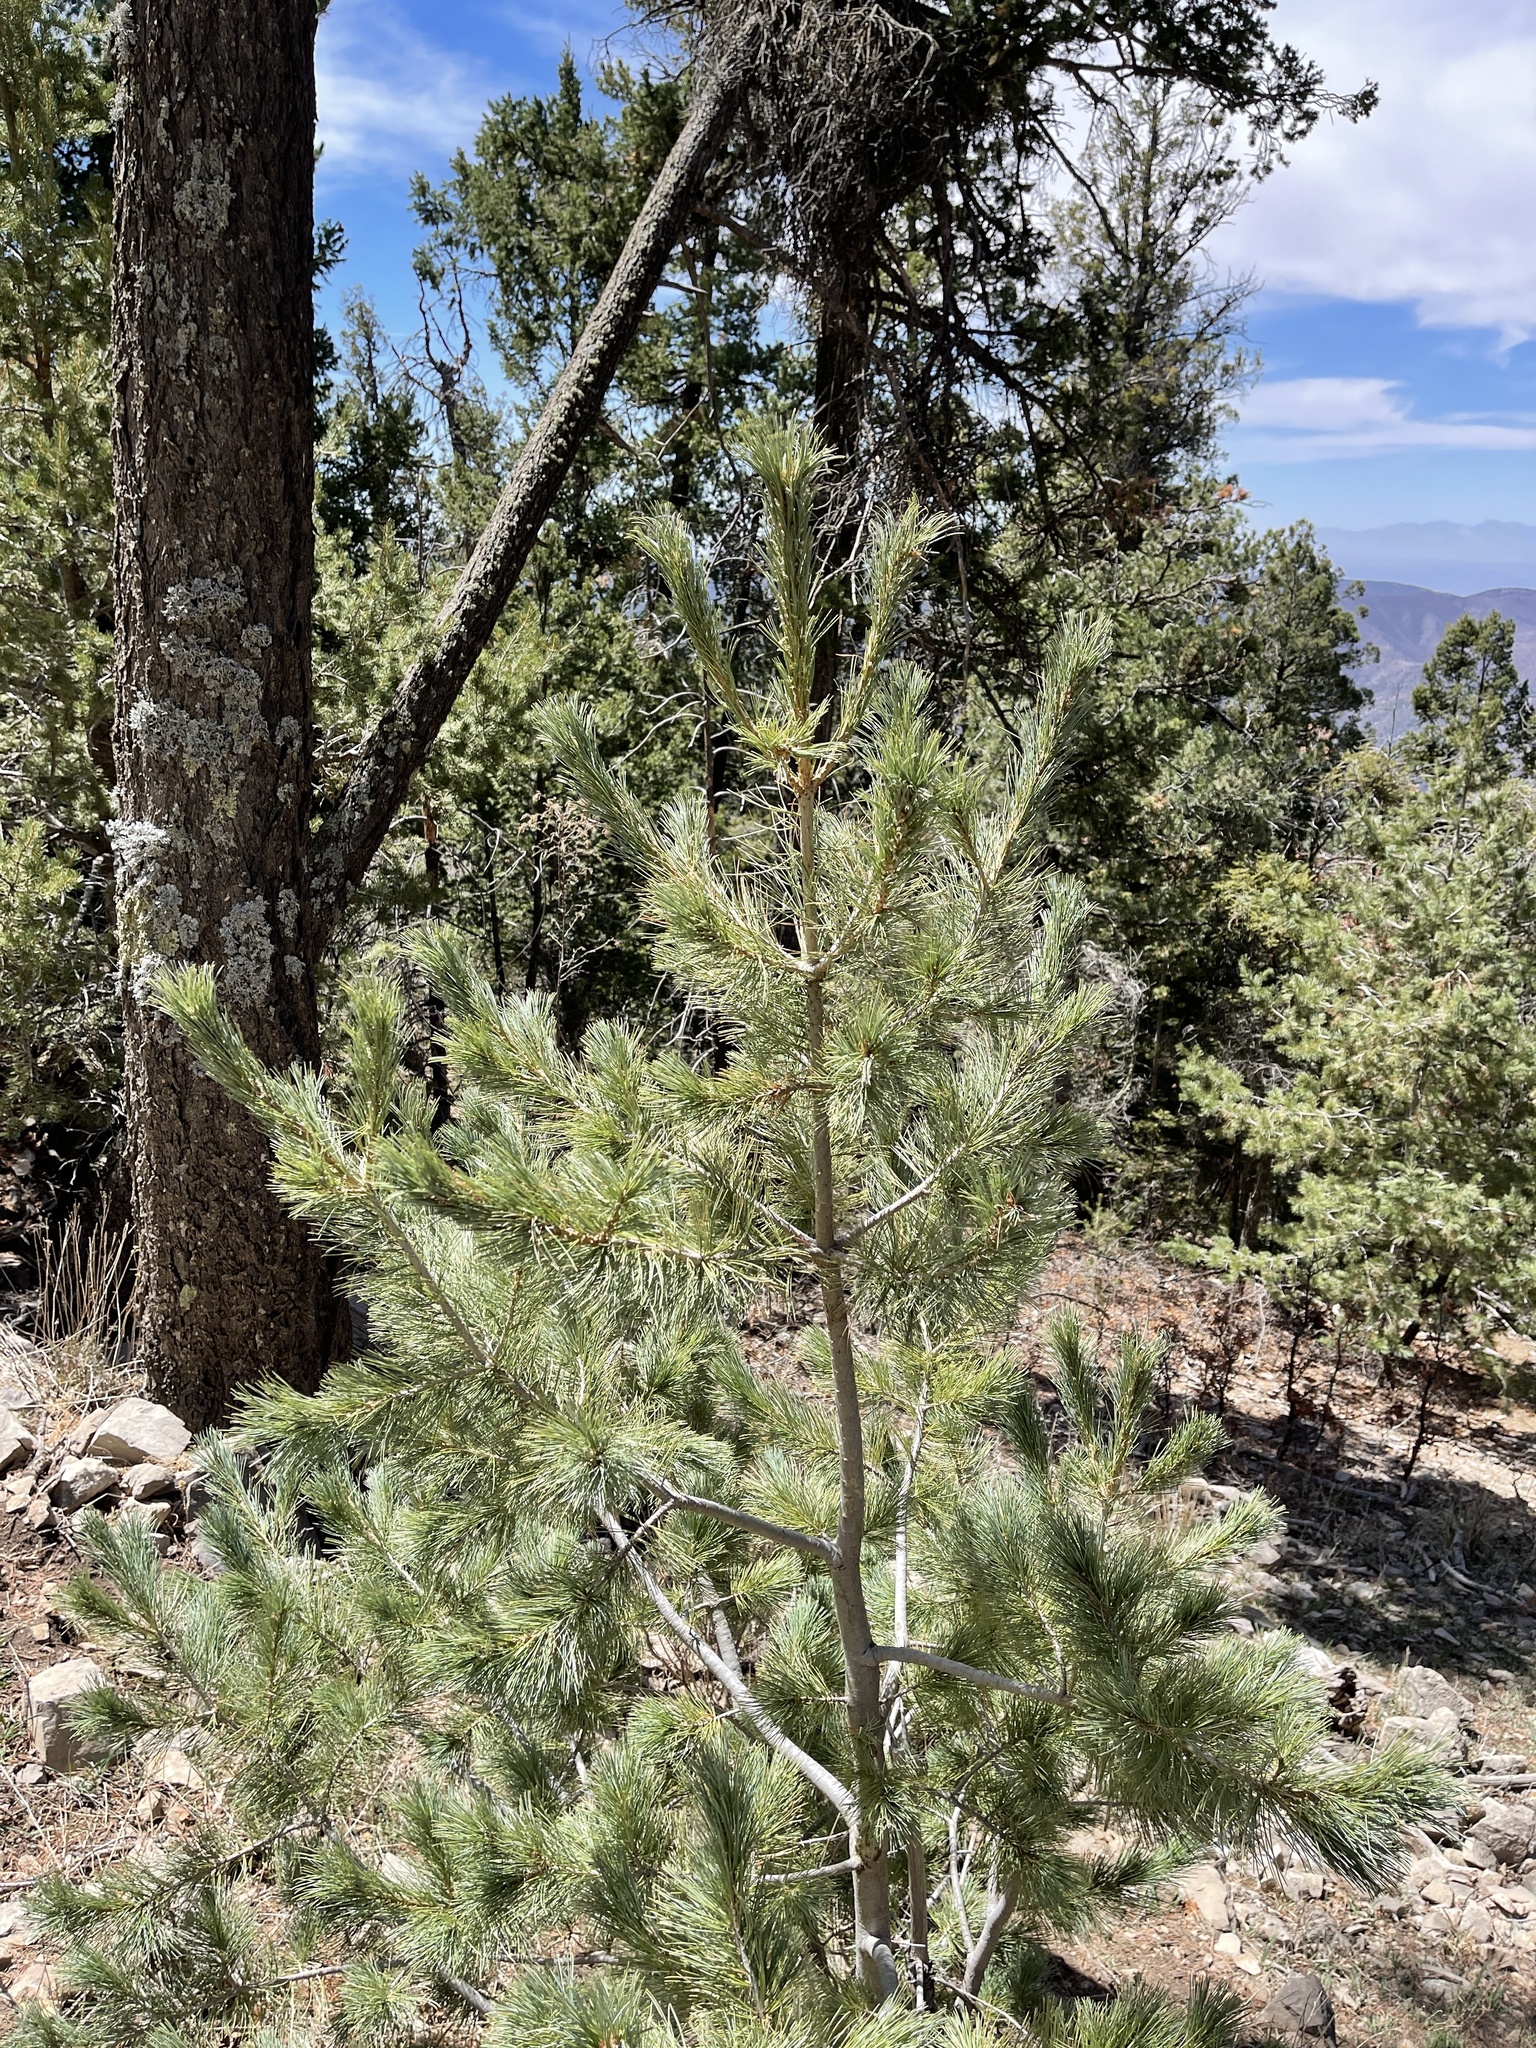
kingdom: Plantae
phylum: Tracheophyta
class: Pinopsida
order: Pinales
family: Pinaceae
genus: Pinus
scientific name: Pinus strobiformis
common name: Southwestern white pine
